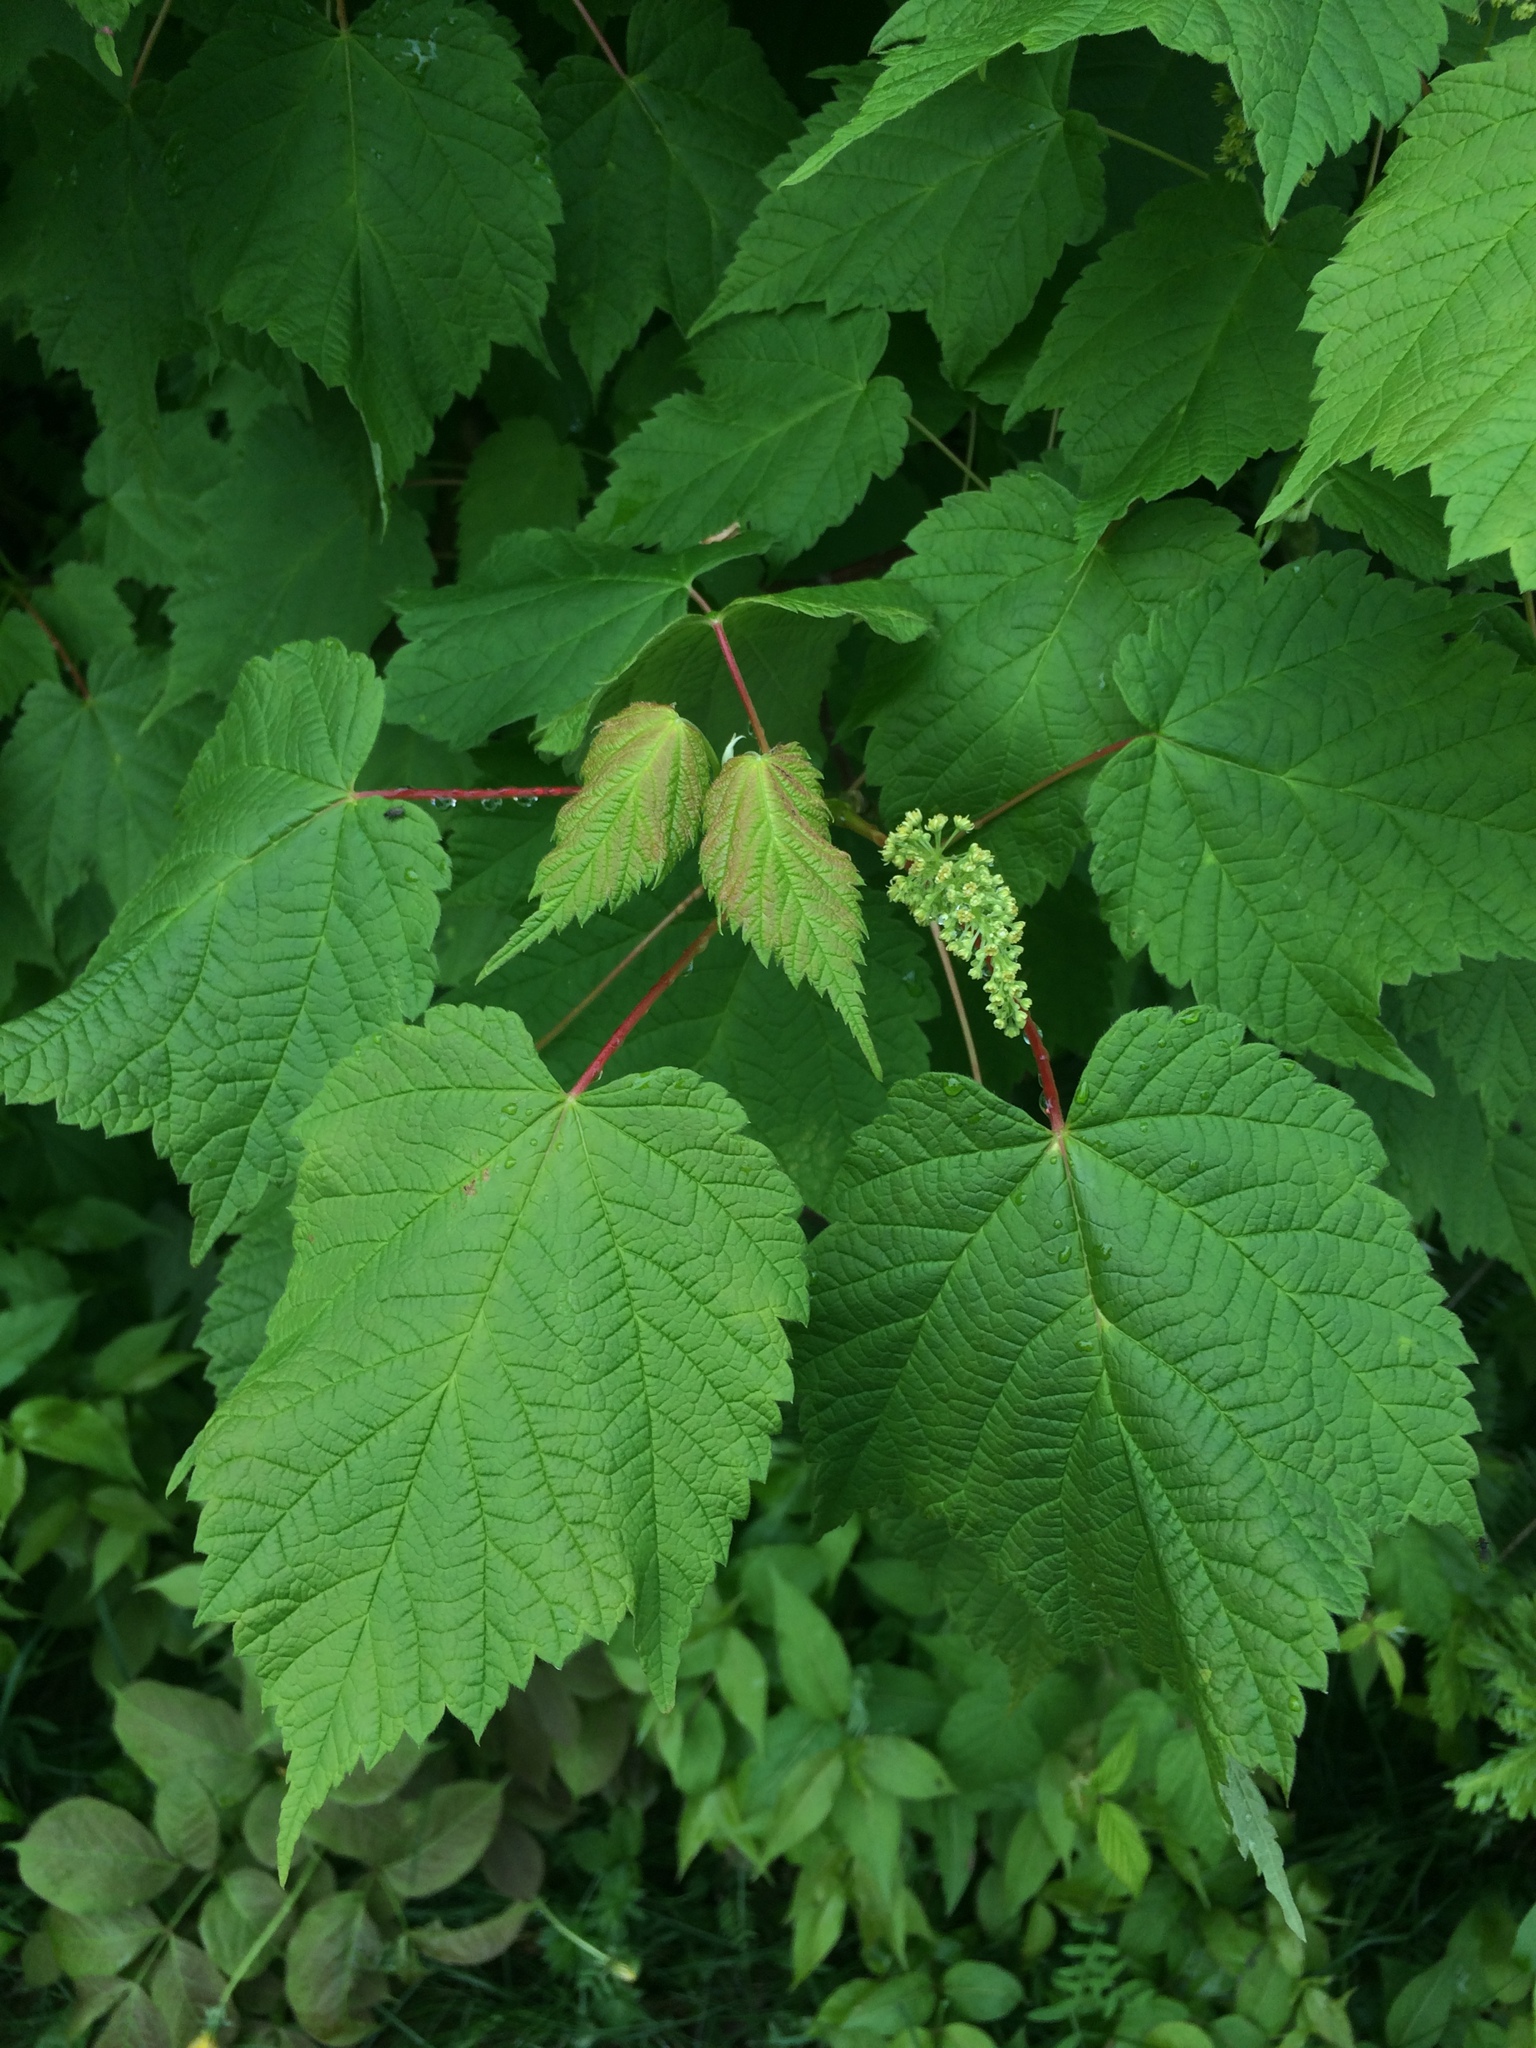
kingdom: Plantae
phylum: Tracheophyta
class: Magnoliopsida
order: Sapindales
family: Sapindaceae
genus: Acer
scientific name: Acer spicatum
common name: Mountain maple
